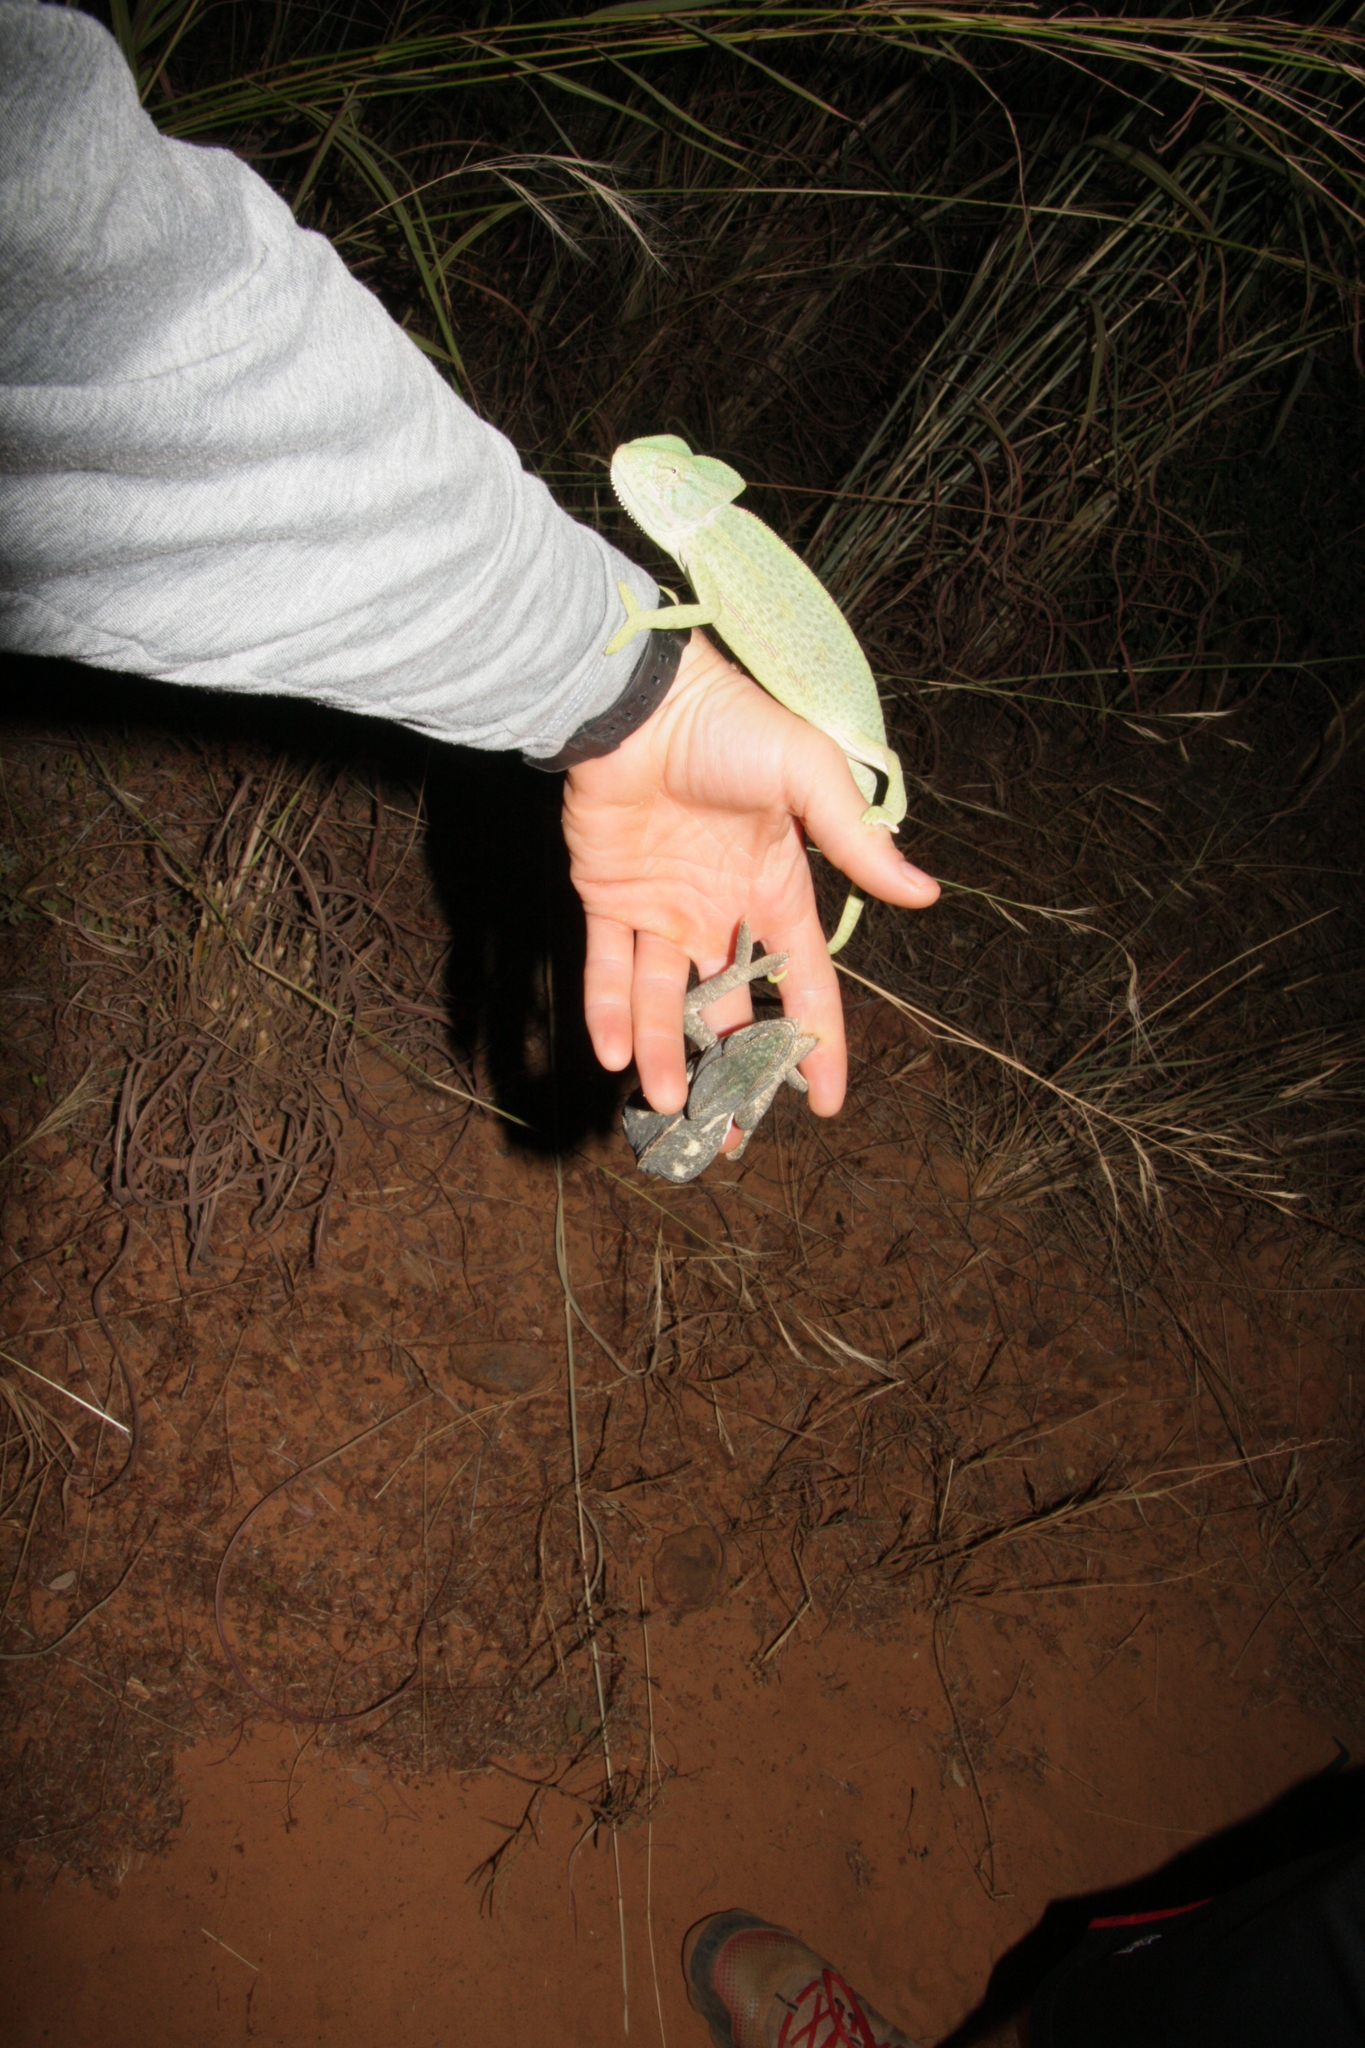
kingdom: Animalia
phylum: Chordata
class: Squamata
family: Chamaeleonidae
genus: Chamaeleo
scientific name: Chamaeleo africanus
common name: African chameleon
